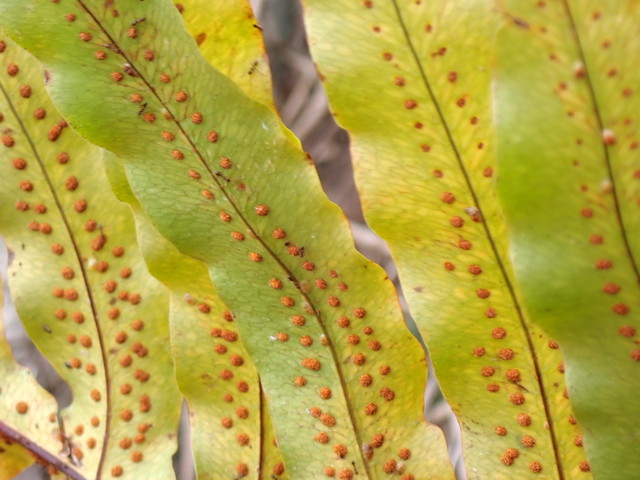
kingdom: Plantae
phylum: Tracheophyta
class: Polypodiopsida
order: Polypodiales
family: Polypodiaceae
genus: Phlebodium
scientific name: Phlebodium aureum
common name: Gold-foot fern
